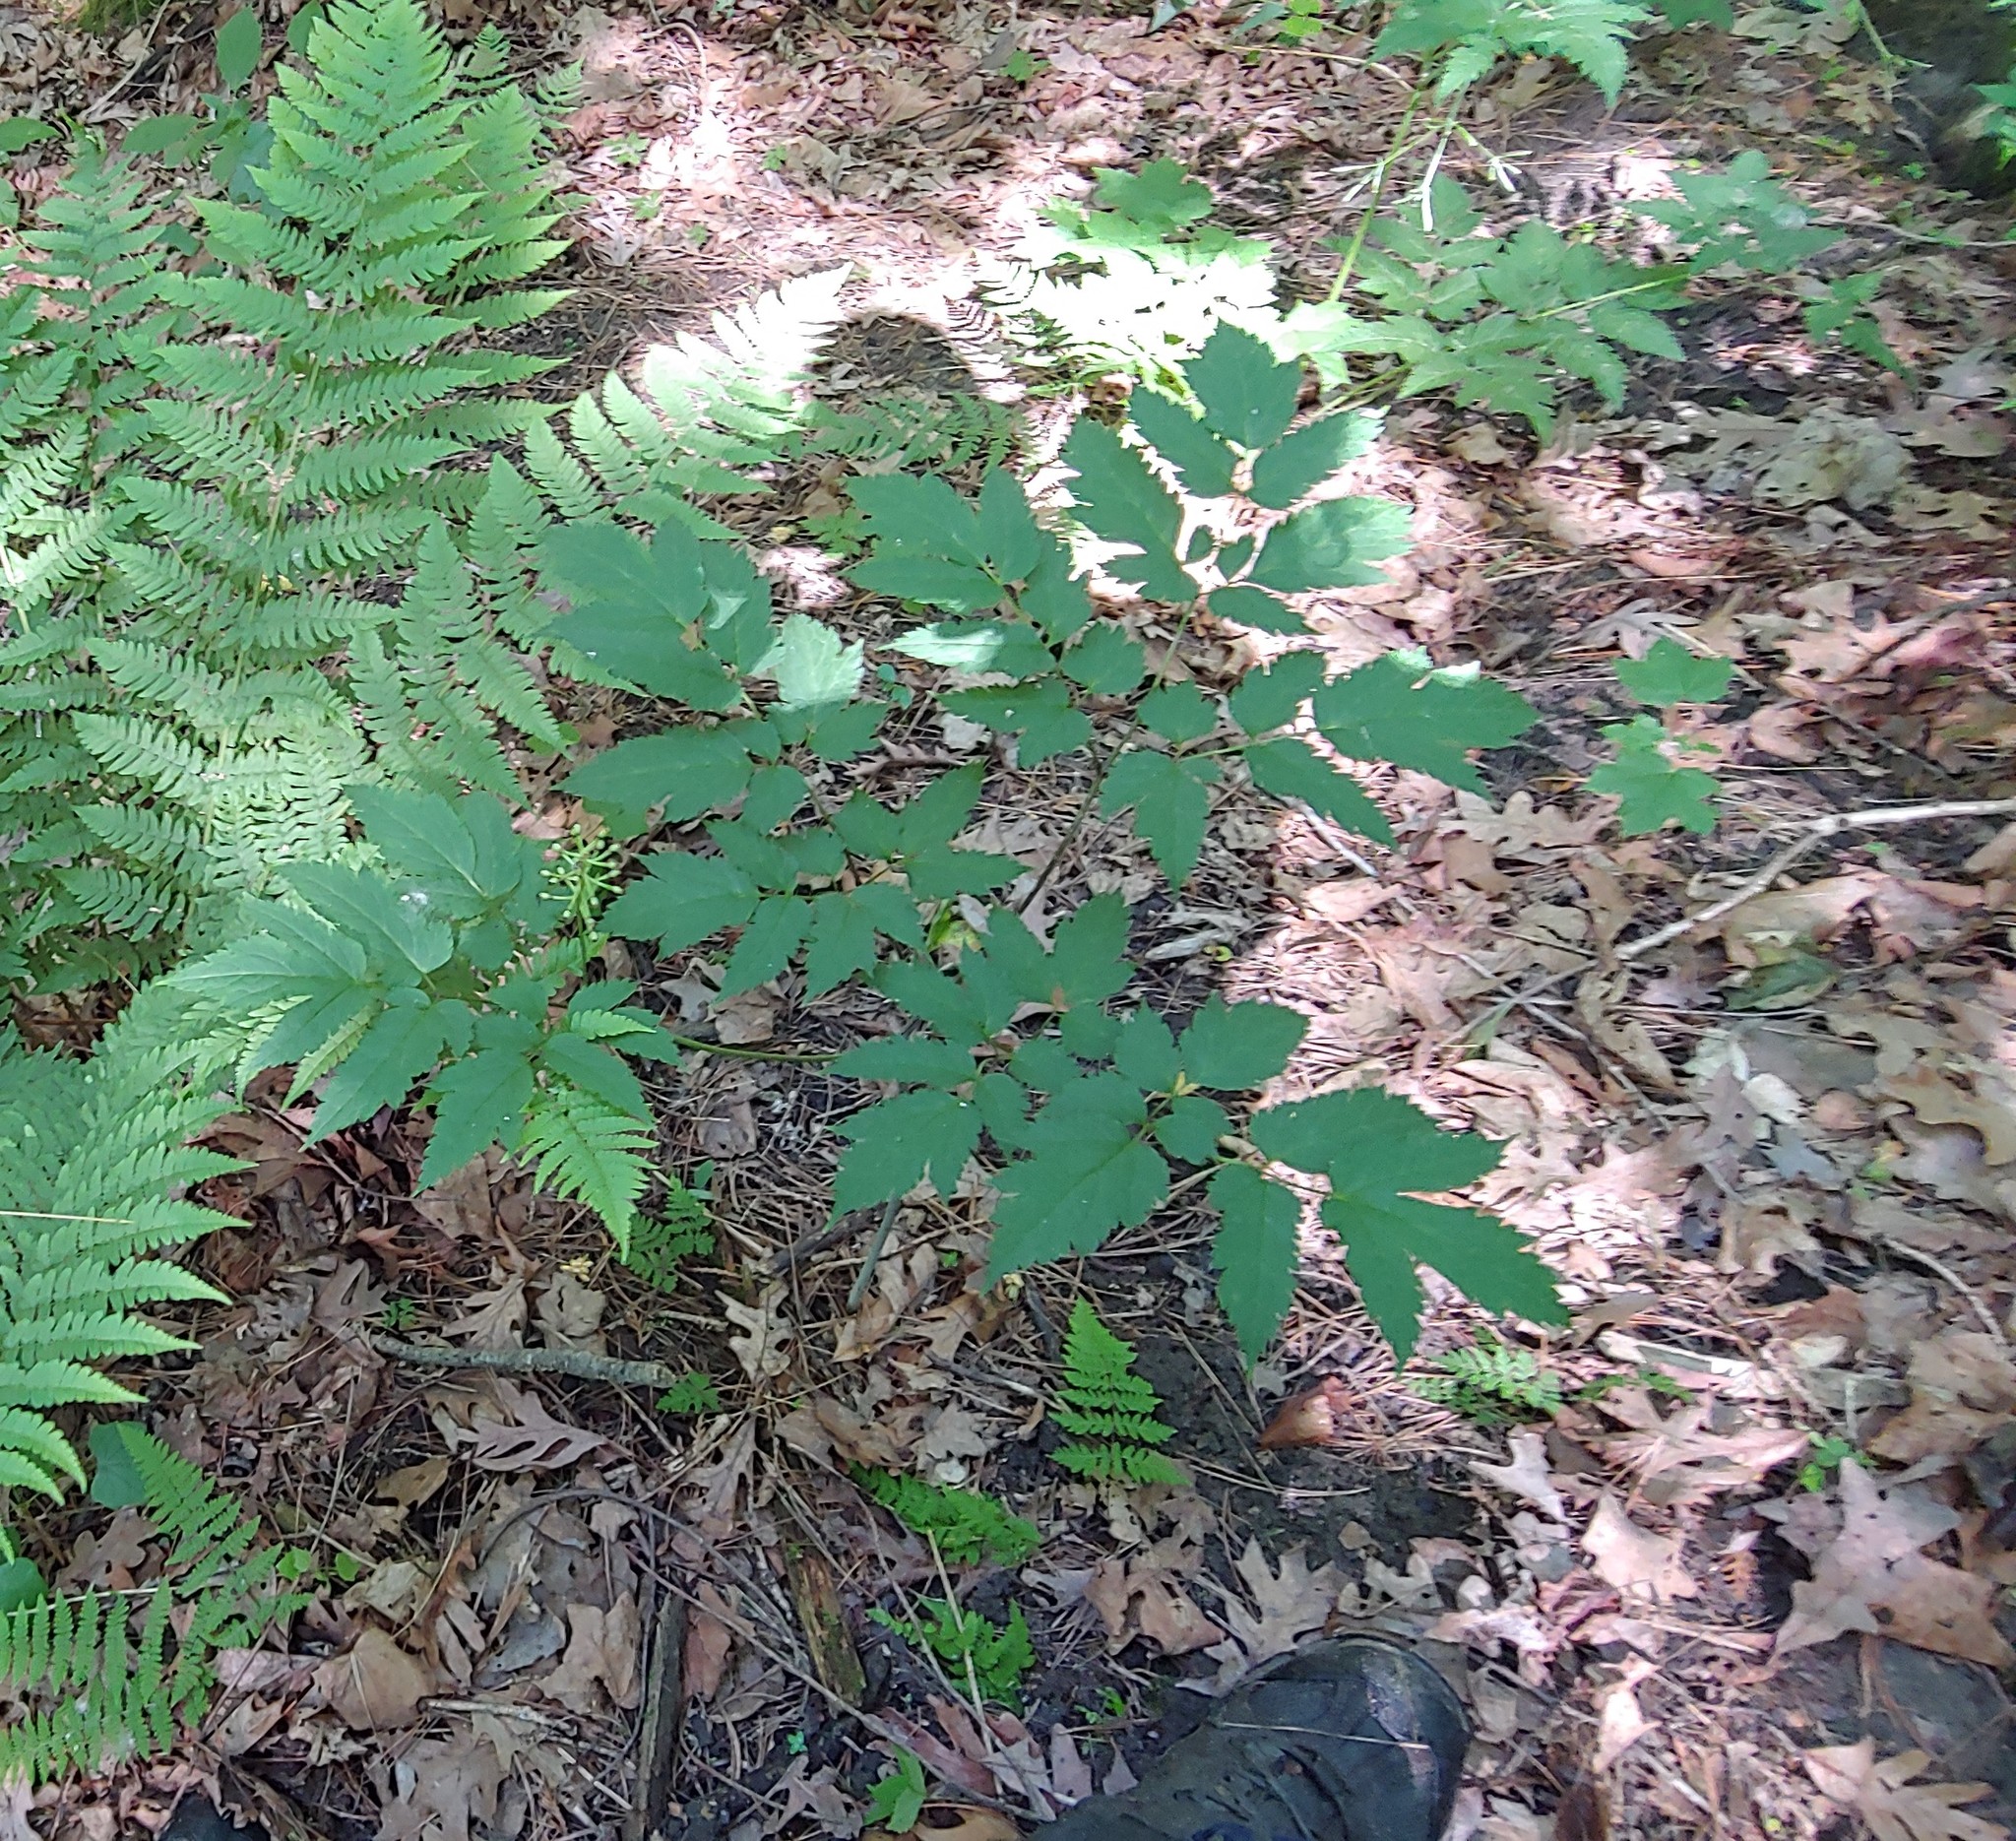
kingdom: Plantae
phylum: Tracheophyta
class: Magnoliopsida
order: Ranunculales
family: Ranunculaceae
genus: Actaea
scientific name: Actaea pachypoda
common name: Doll's-eyes
